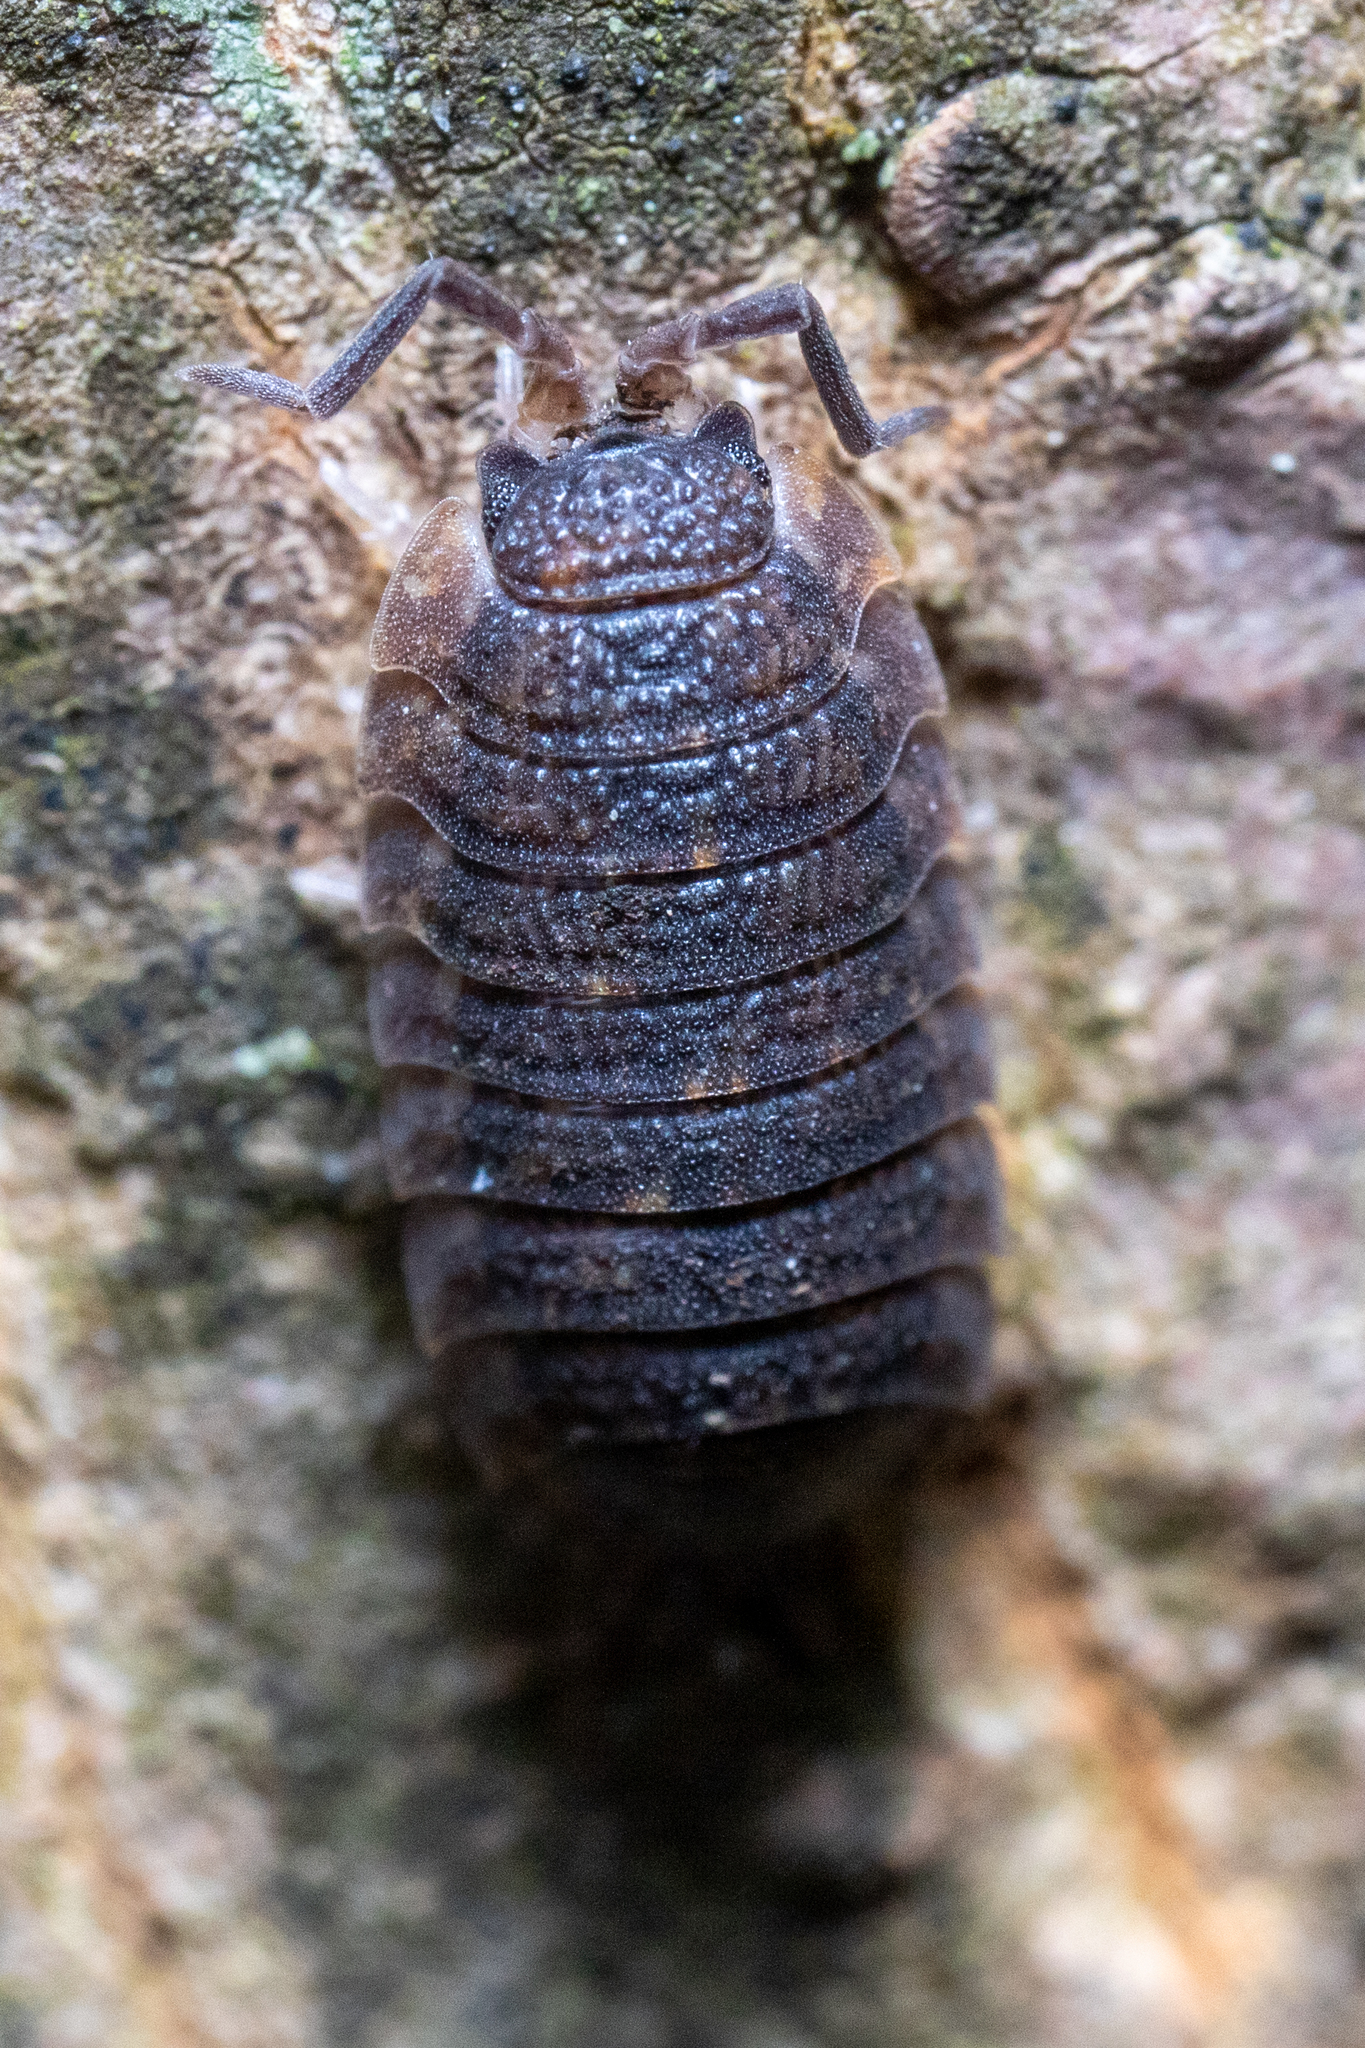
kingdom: Animalia
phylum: Arthropoda
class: Malacostraca
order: Isopoda
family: Porcellionidae
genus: Porcellio
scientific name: Porcellio scaber
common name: Common rough woodlouse
